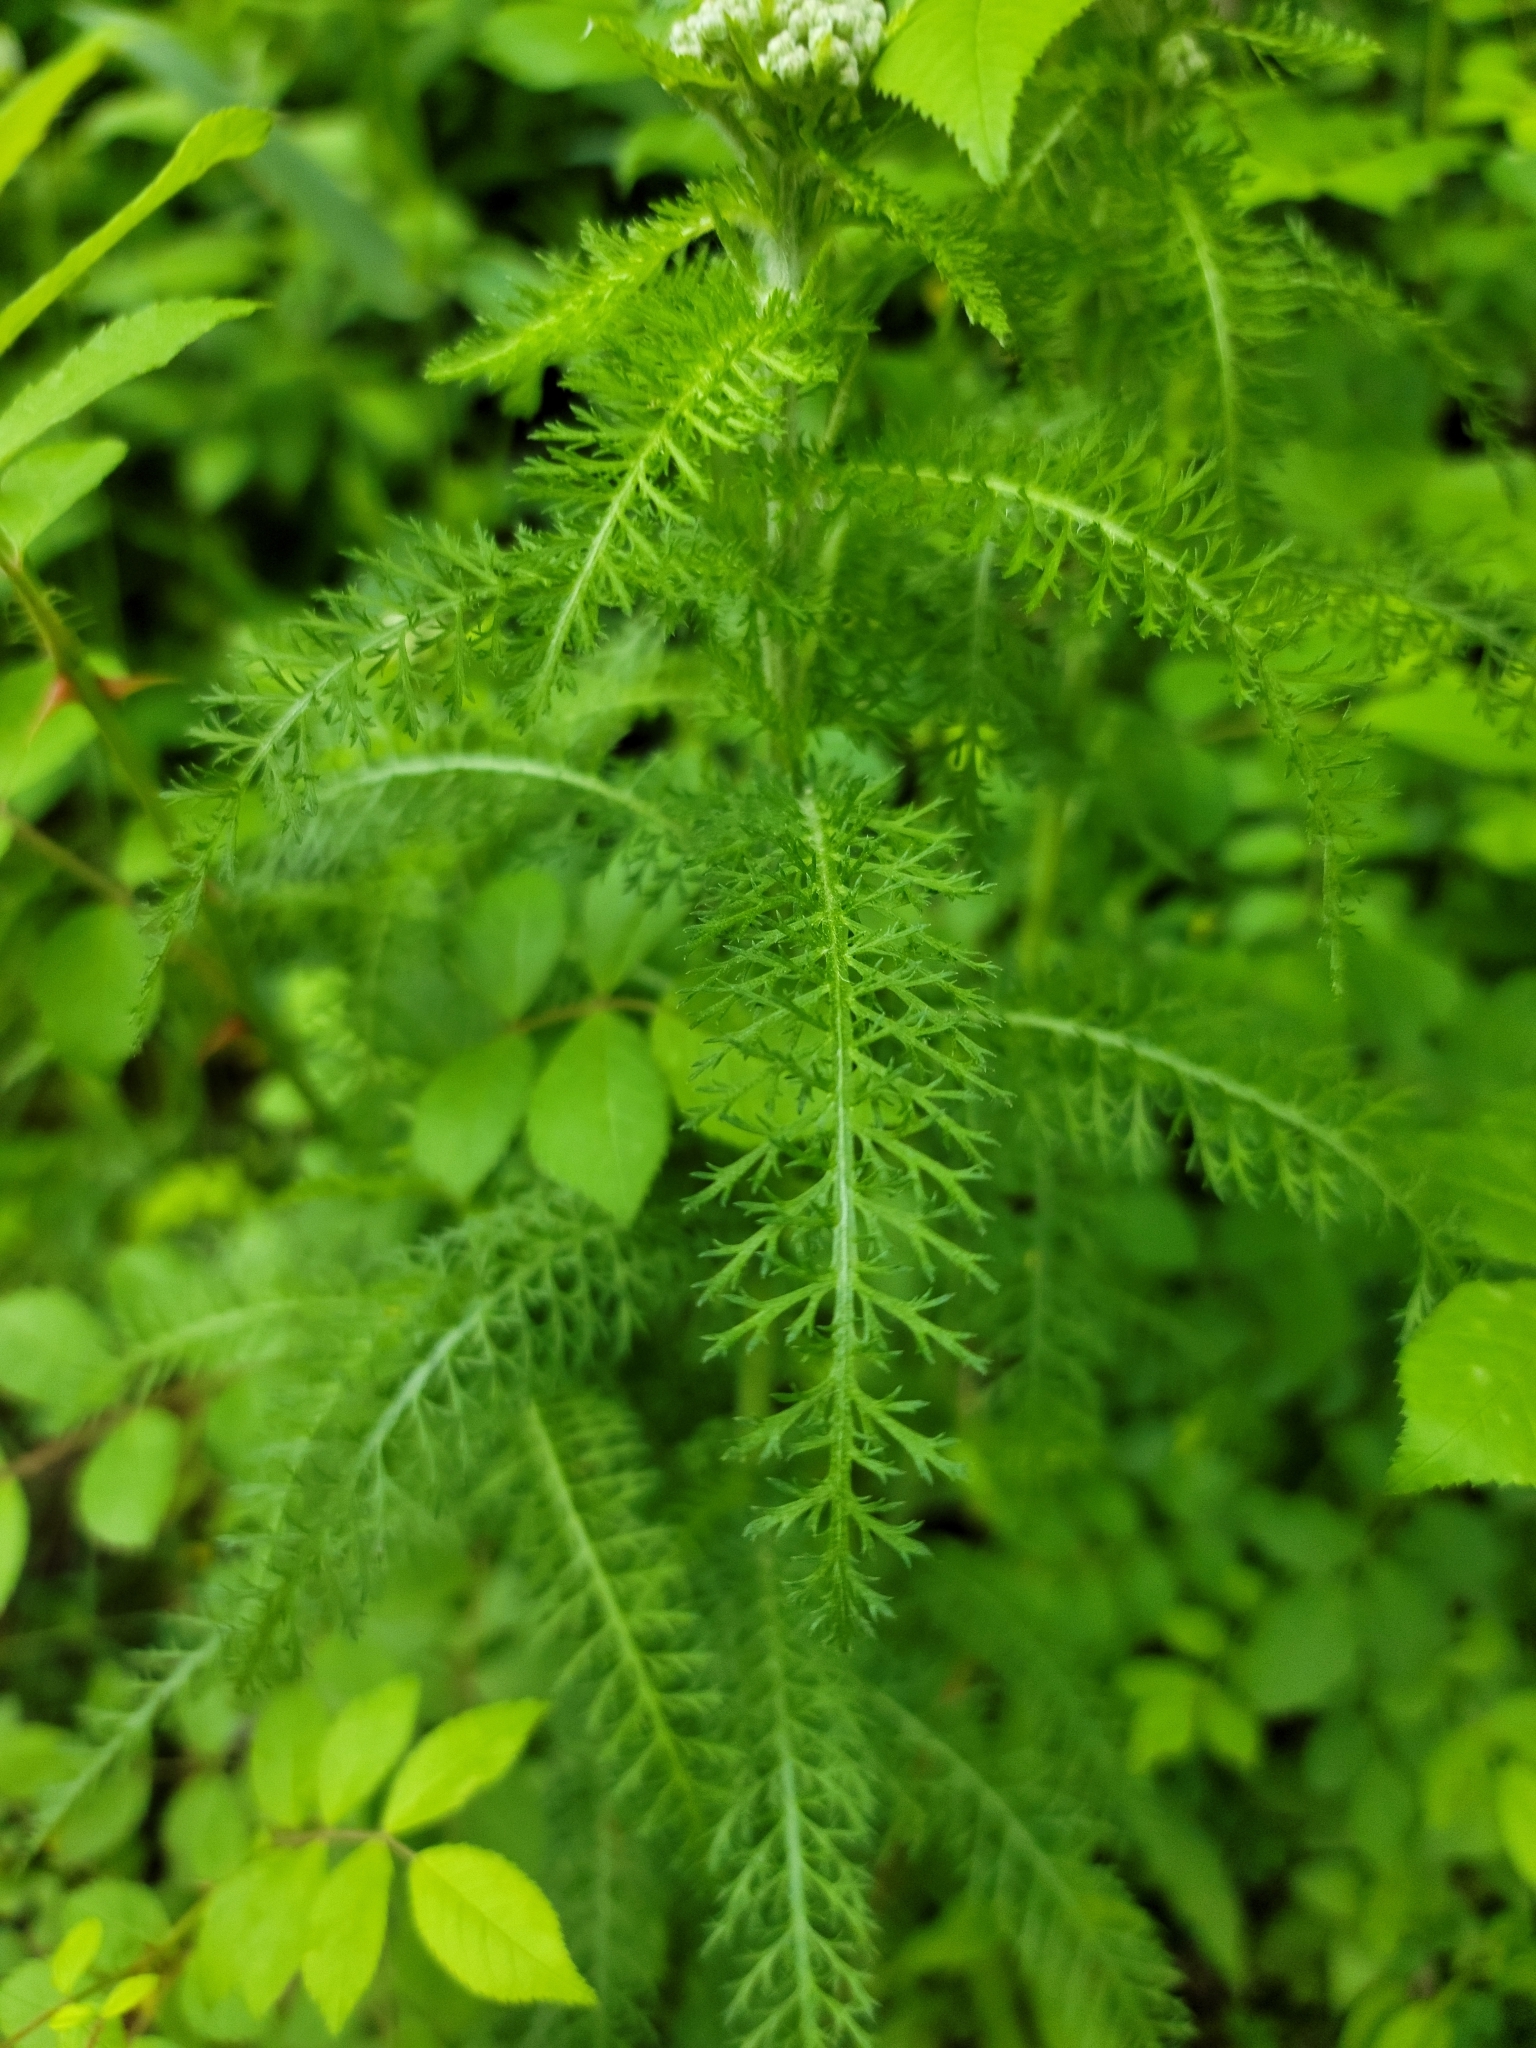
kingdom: Plantae
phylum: Tracheophyta
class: Magnoliopsida
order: Asterales
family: Asteraceae
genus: Achillea
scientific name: Achillea millefolium
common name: Yarrow
